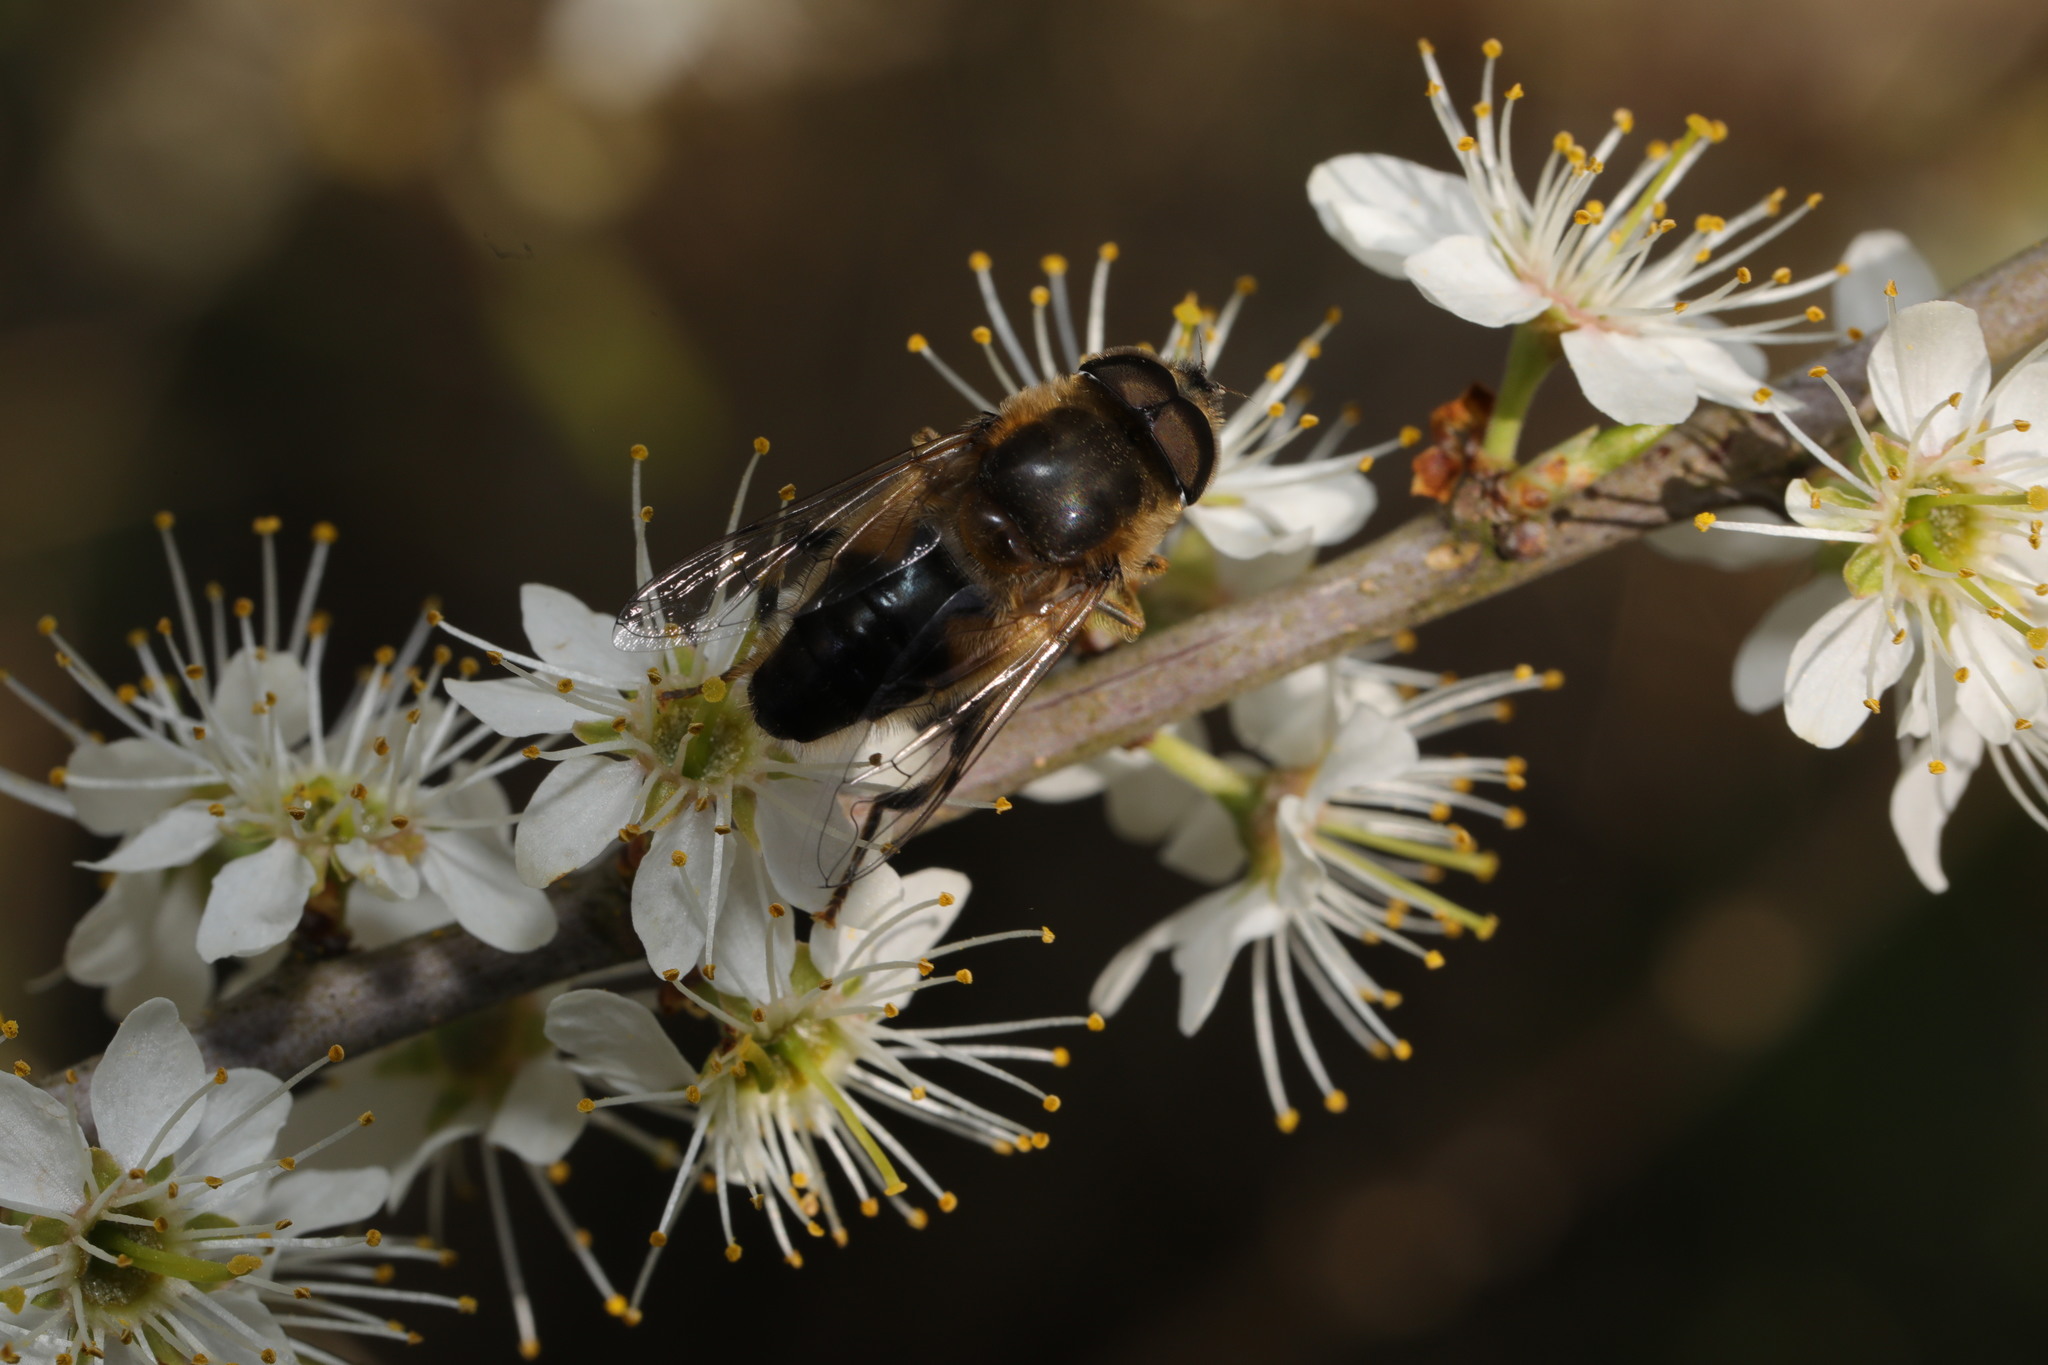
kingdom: Animalia
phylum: Arthropoda
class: Insecta
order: Diptera
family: Syrphidae
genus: Eristalis
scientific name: Eristalis pertinax
